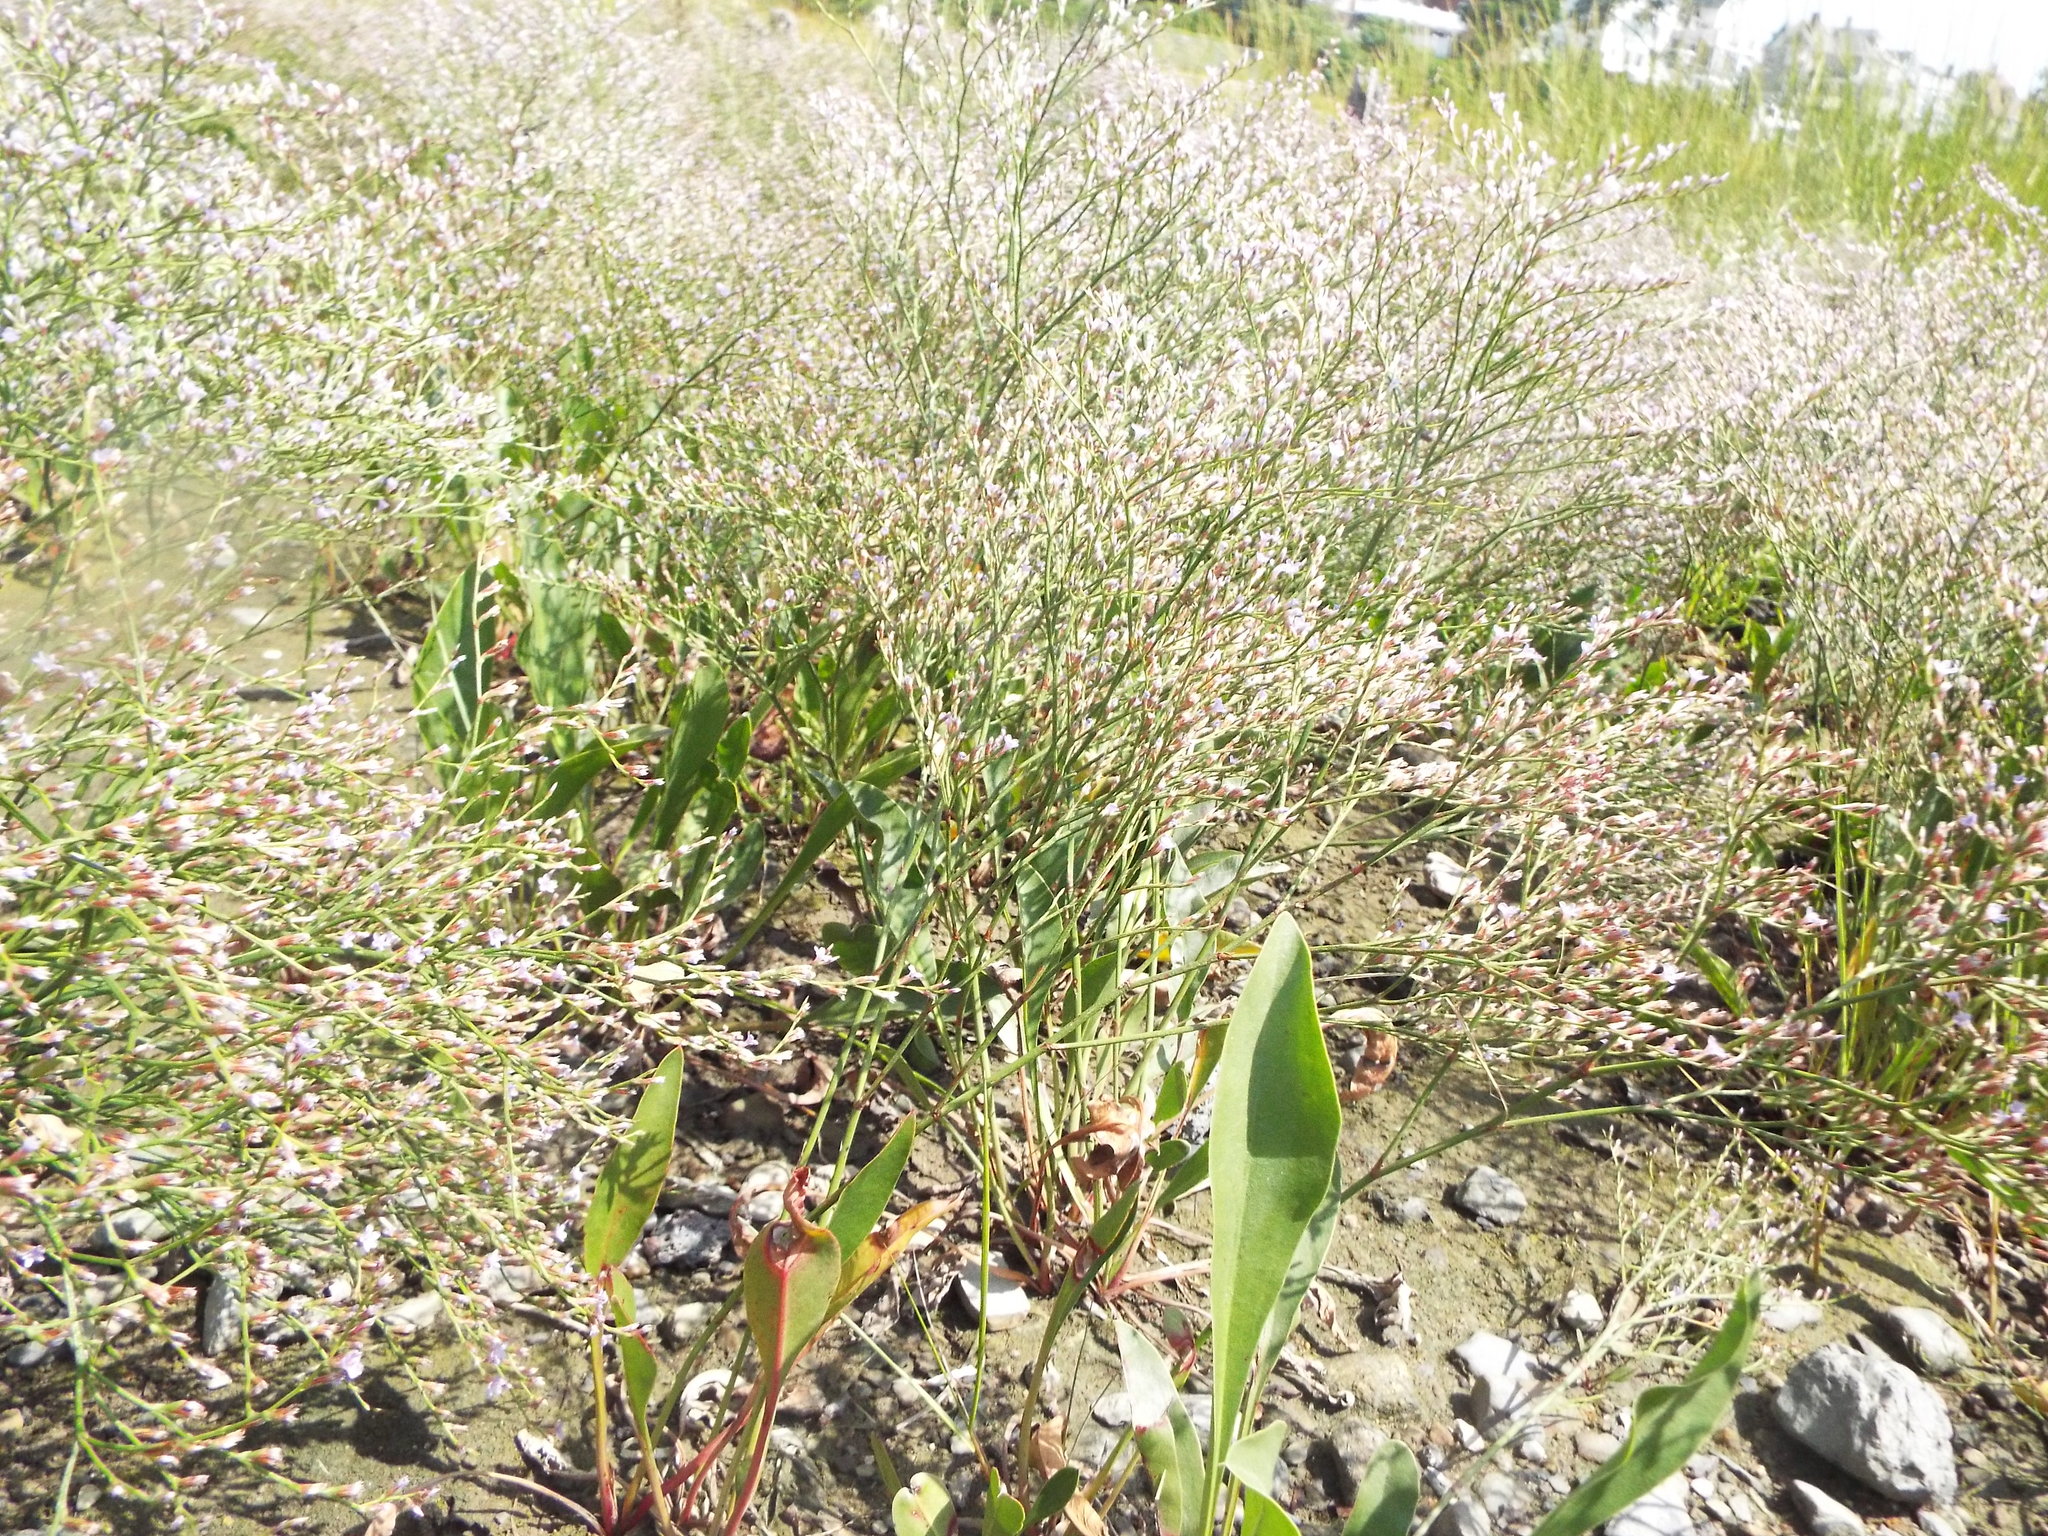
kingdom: Plantae
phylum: Tracheophyta
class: Magnoliopsida
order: Caryophyllales
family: Plumbaginaceae
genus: Limonium
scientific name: Limonium carolinianum
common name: Carolina sea lavender
